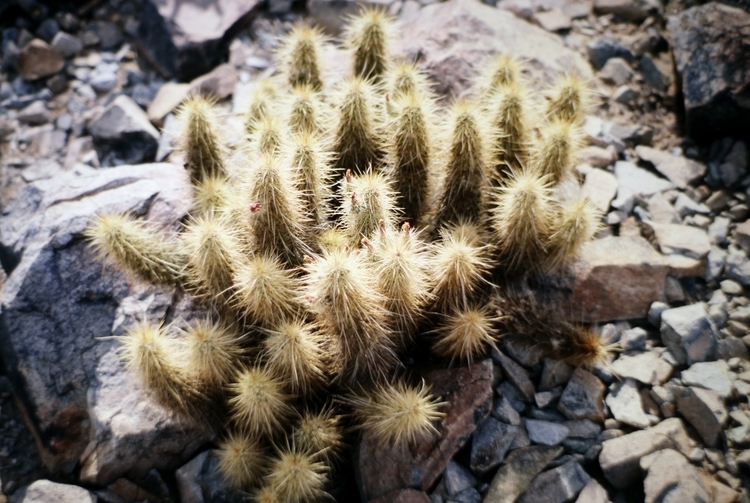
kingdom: Plantae
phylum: Tracheophyta
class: Magnoliopsida
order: Caryophyllales
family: Cactaceae
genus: Echinocereus
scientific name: Echinocereus nicholii
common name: Nichol's hedgehog cactus
